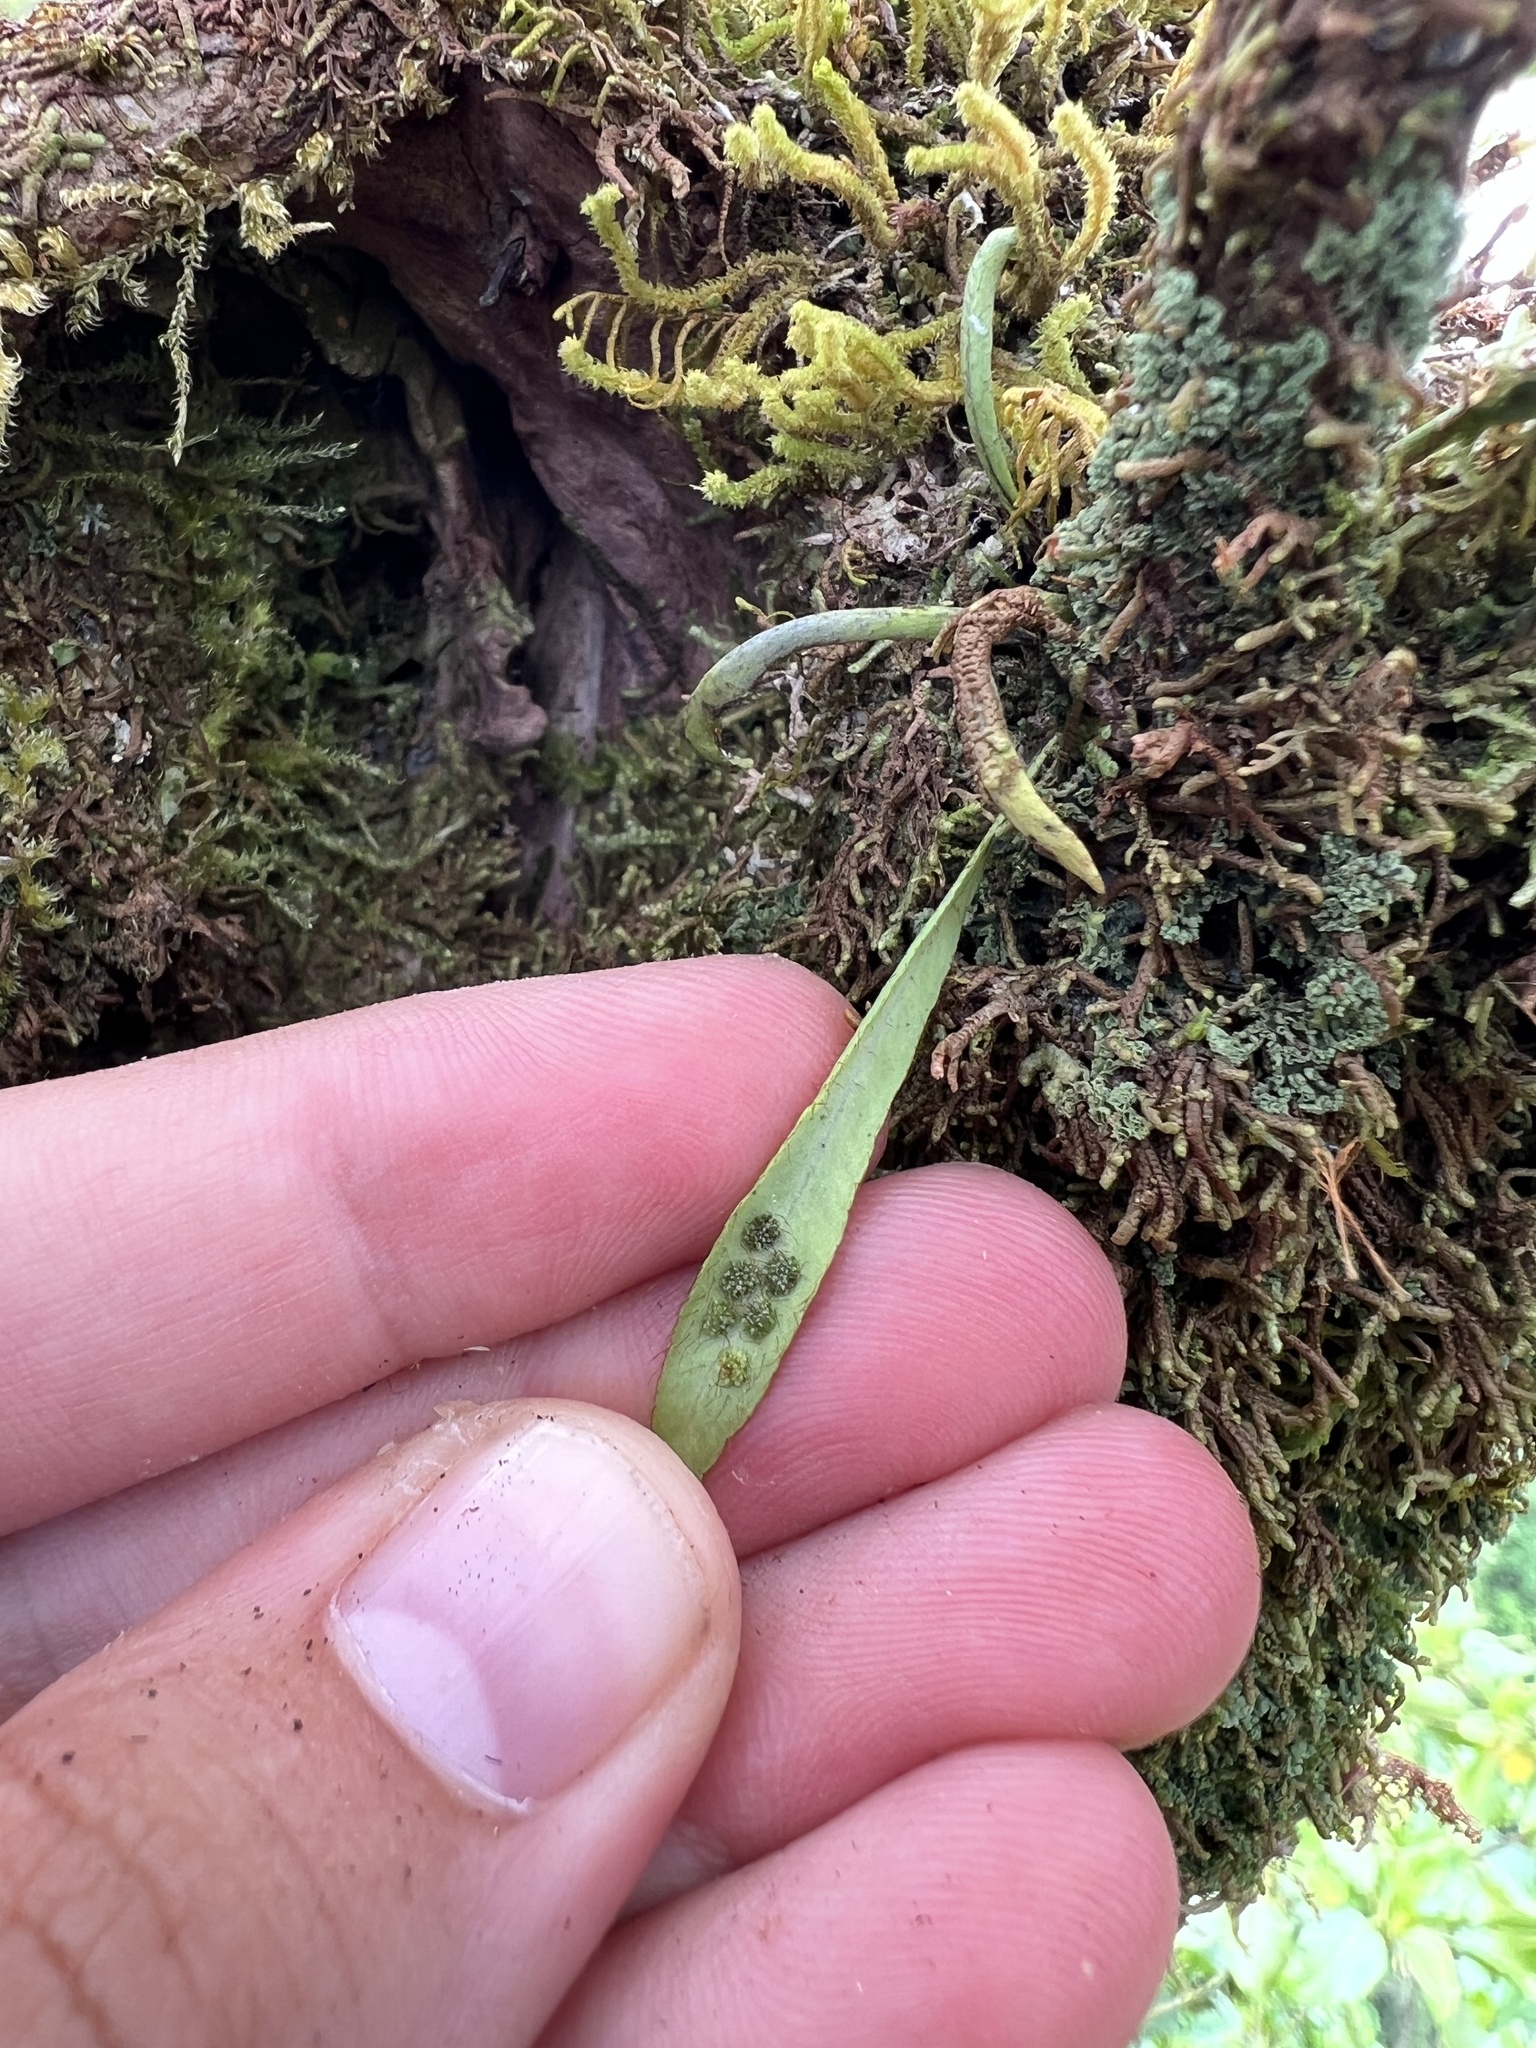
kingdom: Plantae
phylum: Tracheophyta
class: Polypodiopsida
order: Polypodiales
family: Polypodiaceae
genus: Oreogrammitis
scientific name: Oreogrammitis cheesemanii
